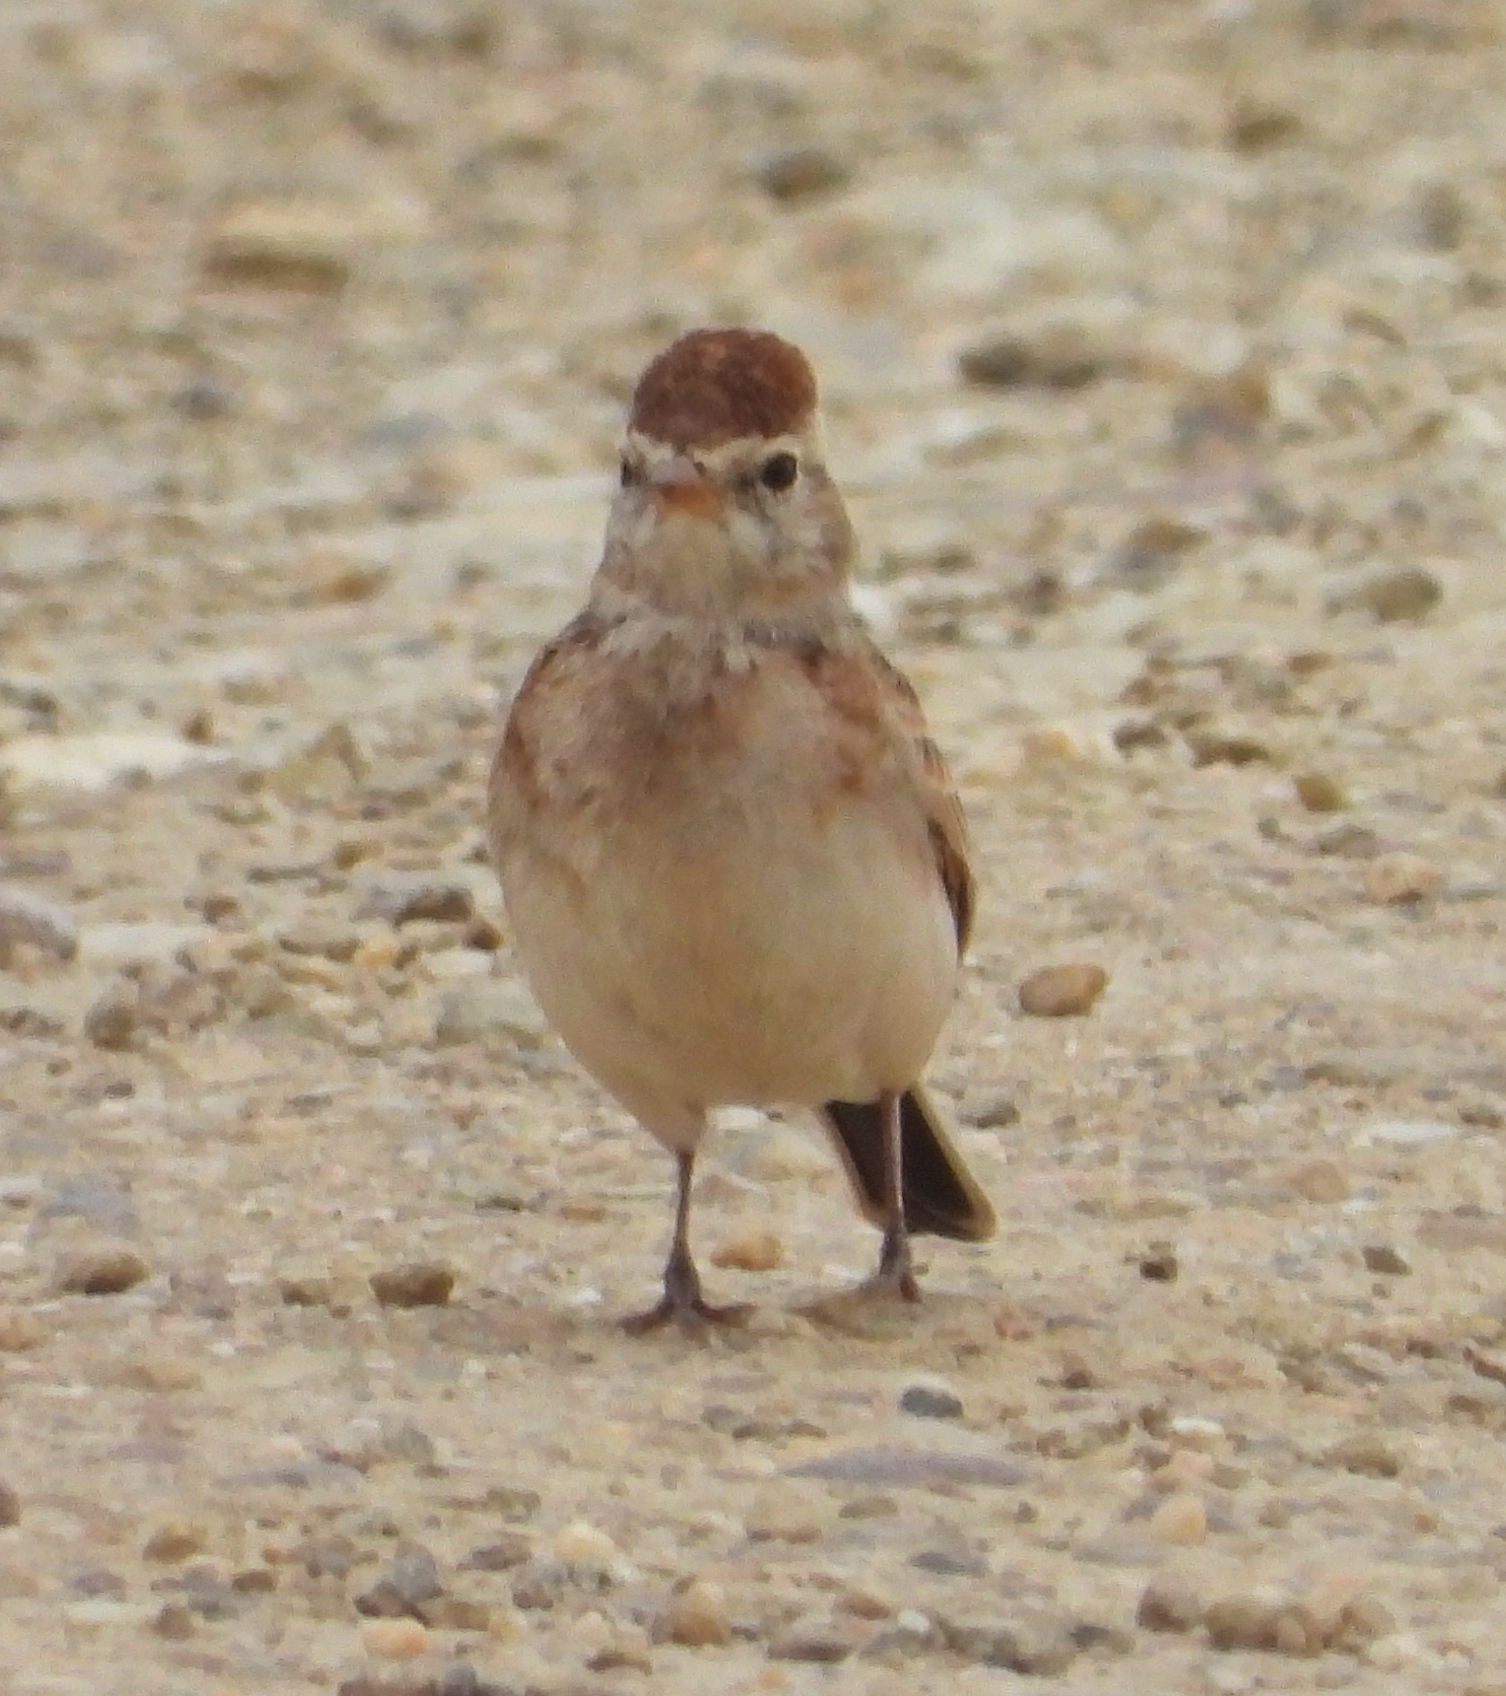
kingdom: Animalia
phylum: Chordata
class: Aves
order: Passeriformes
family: Alaudidae
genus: Calandrella
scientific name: Calandrella cinerea
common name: Red-capped lark
